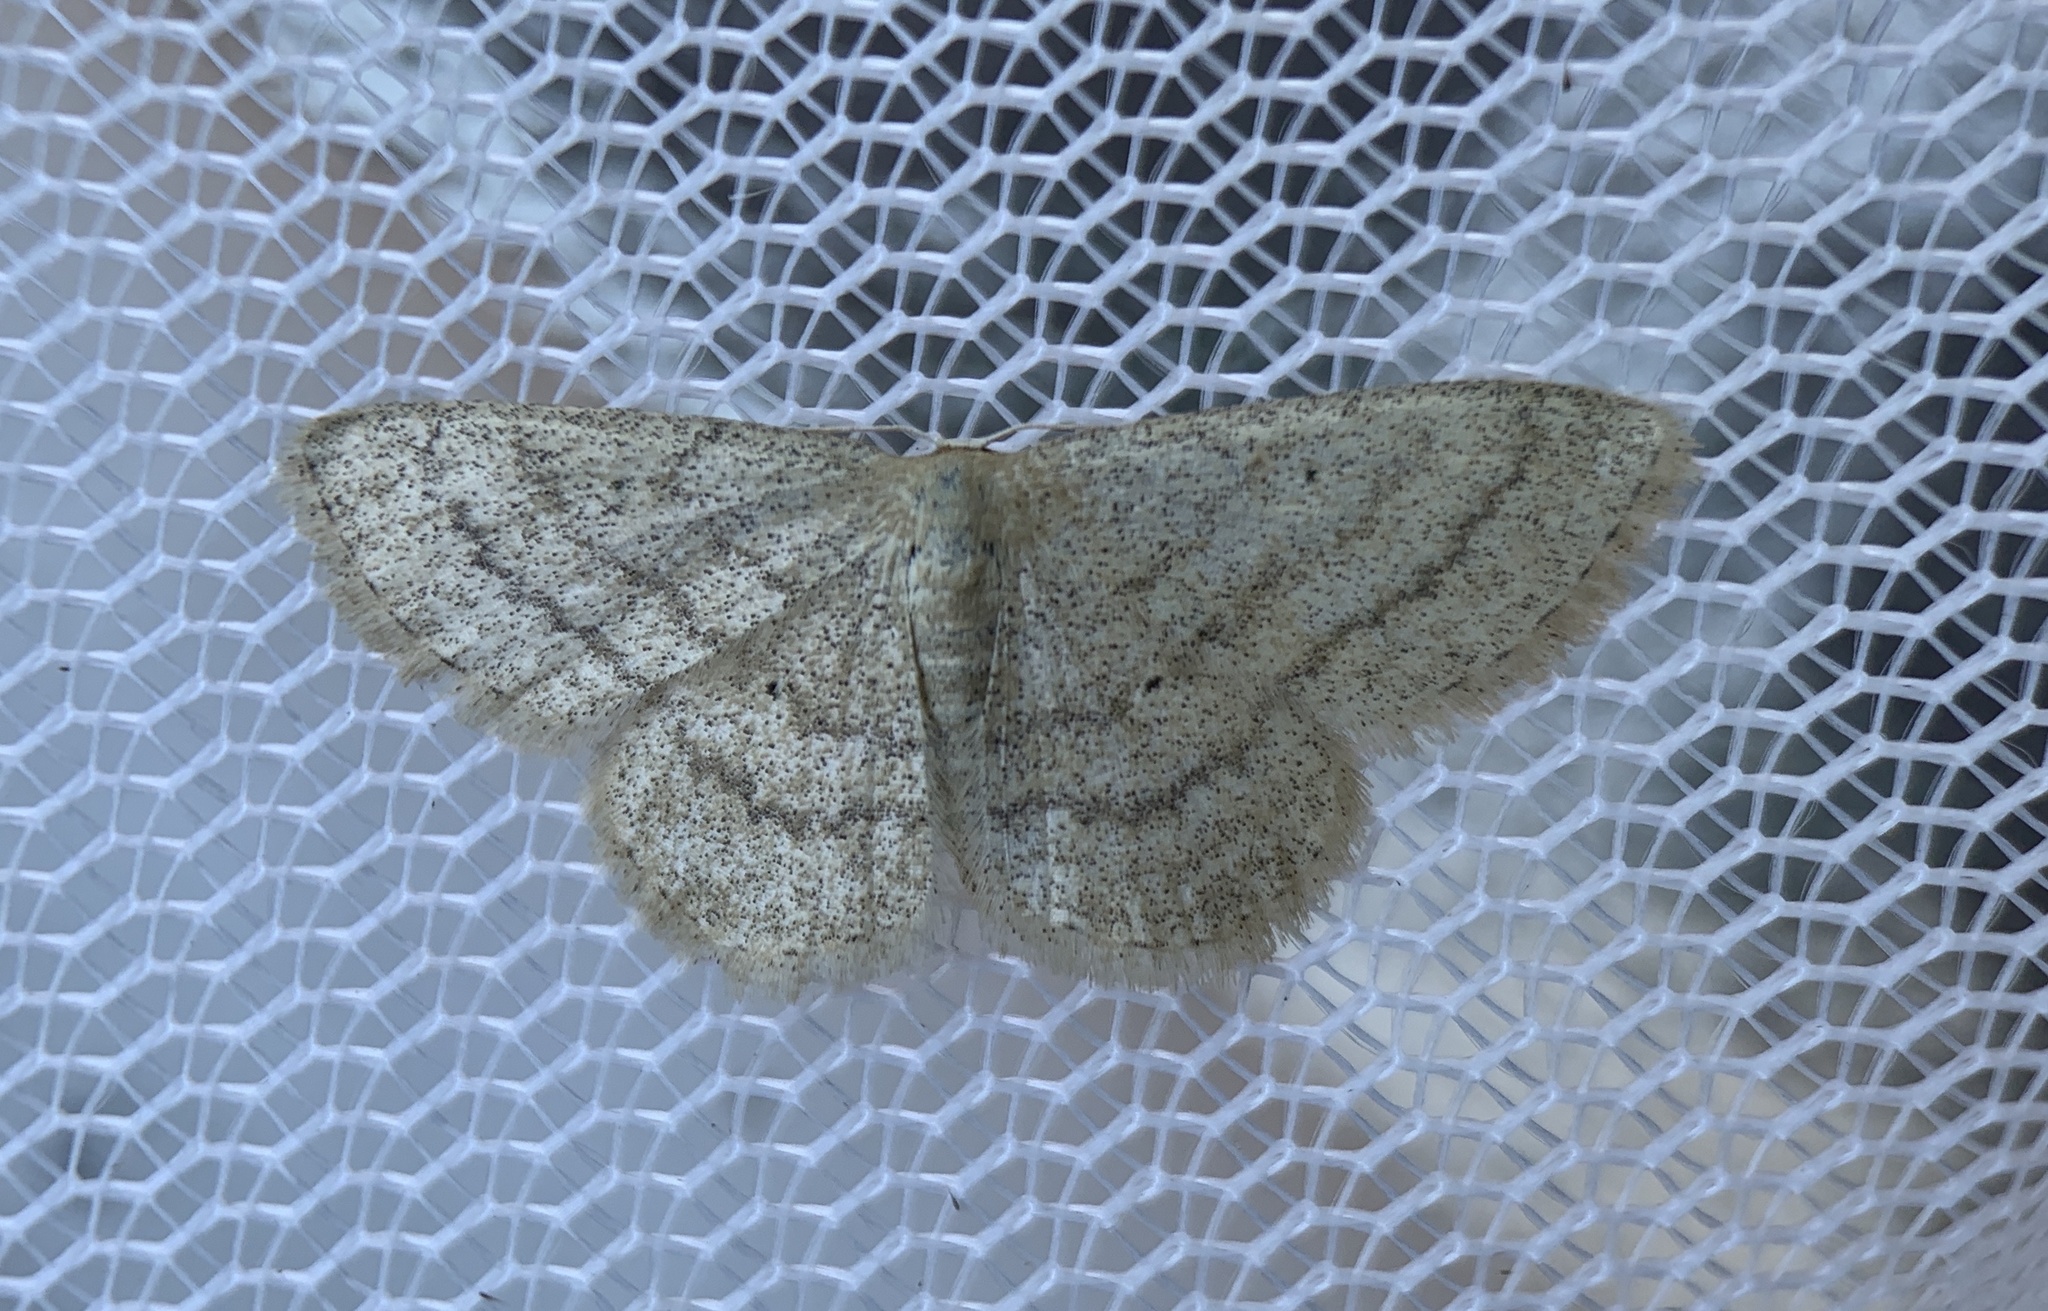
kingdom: Animalia
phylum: Arthropoda
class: Insecta
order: Lepidoptera
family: Geometridae
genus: Scopula
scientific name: Scopula inductata
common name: Soft-lined wave
